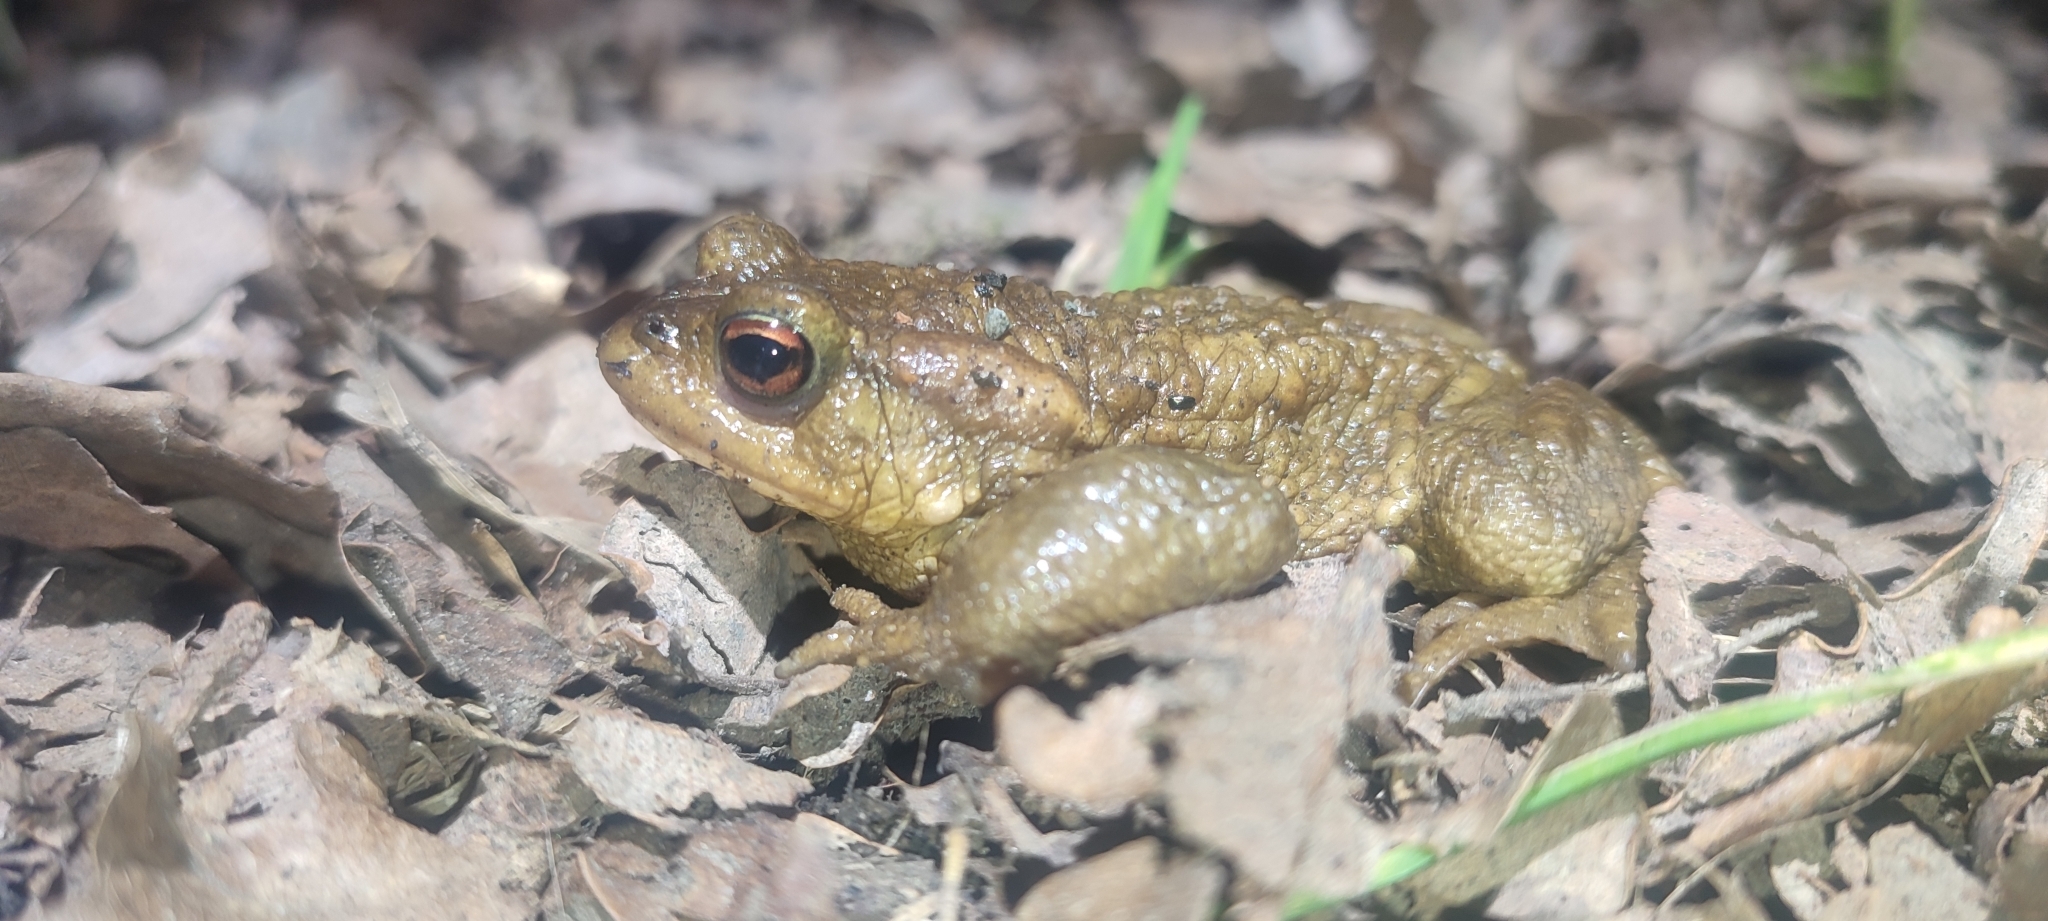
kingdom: Animalia
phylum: Chordata
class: Amphibia
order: Anura
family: Bufonidae
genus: Bufo
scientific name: Bufo spinosus
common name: Western common toad
